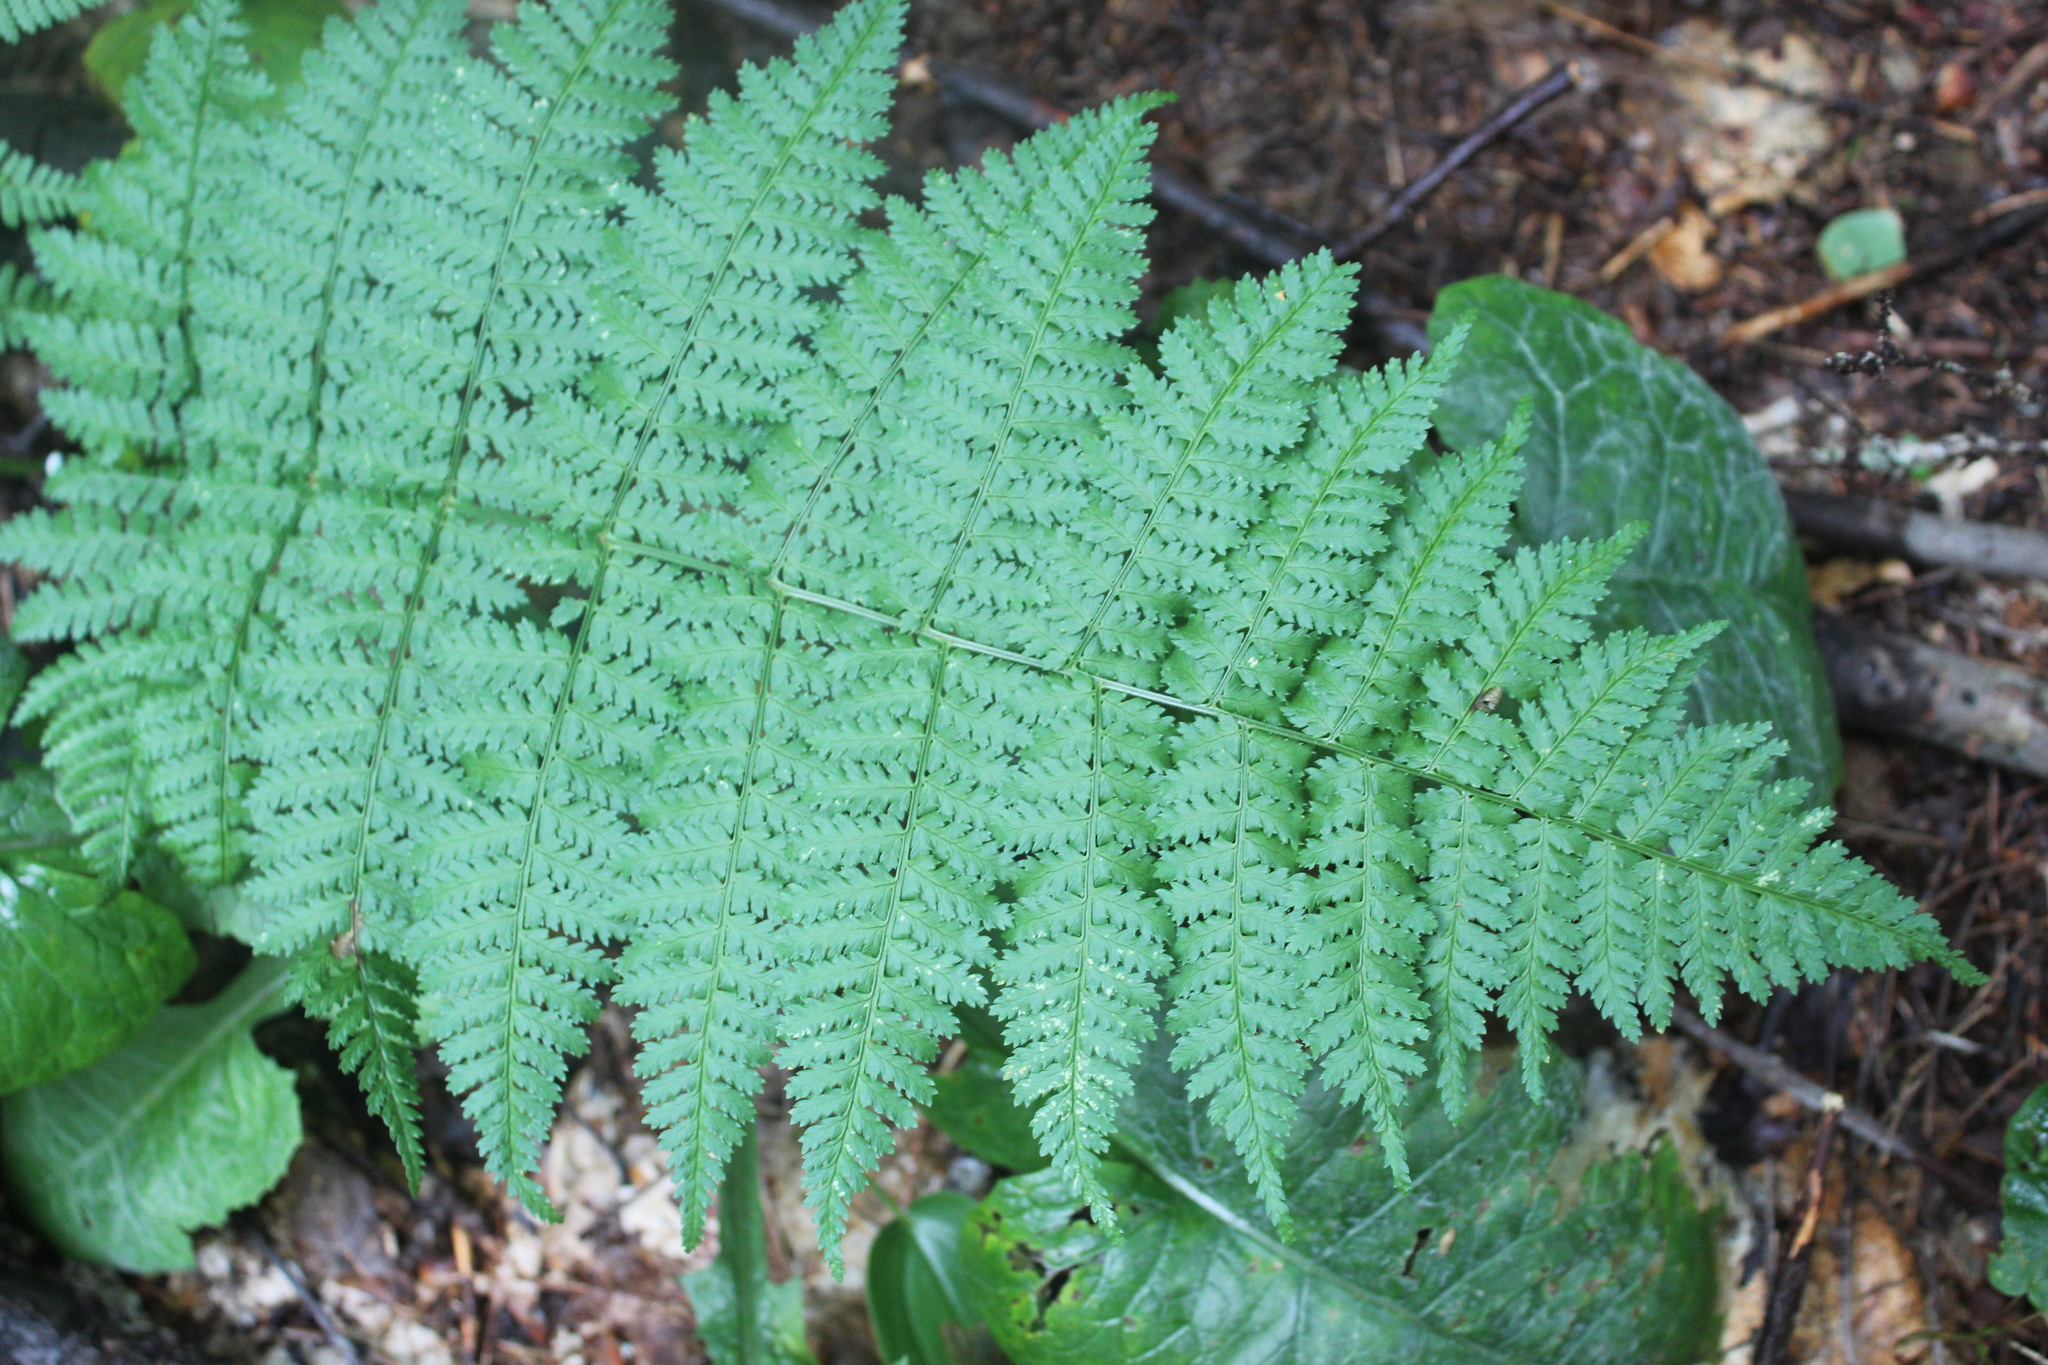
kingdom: Plantae
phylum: Tracheophyta
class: Polypodiopsida
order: Polypodiales
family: Dryopteridaceae
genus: Dryopteris
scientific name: Dryopteris intermedia
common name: Evergreen wood fern
